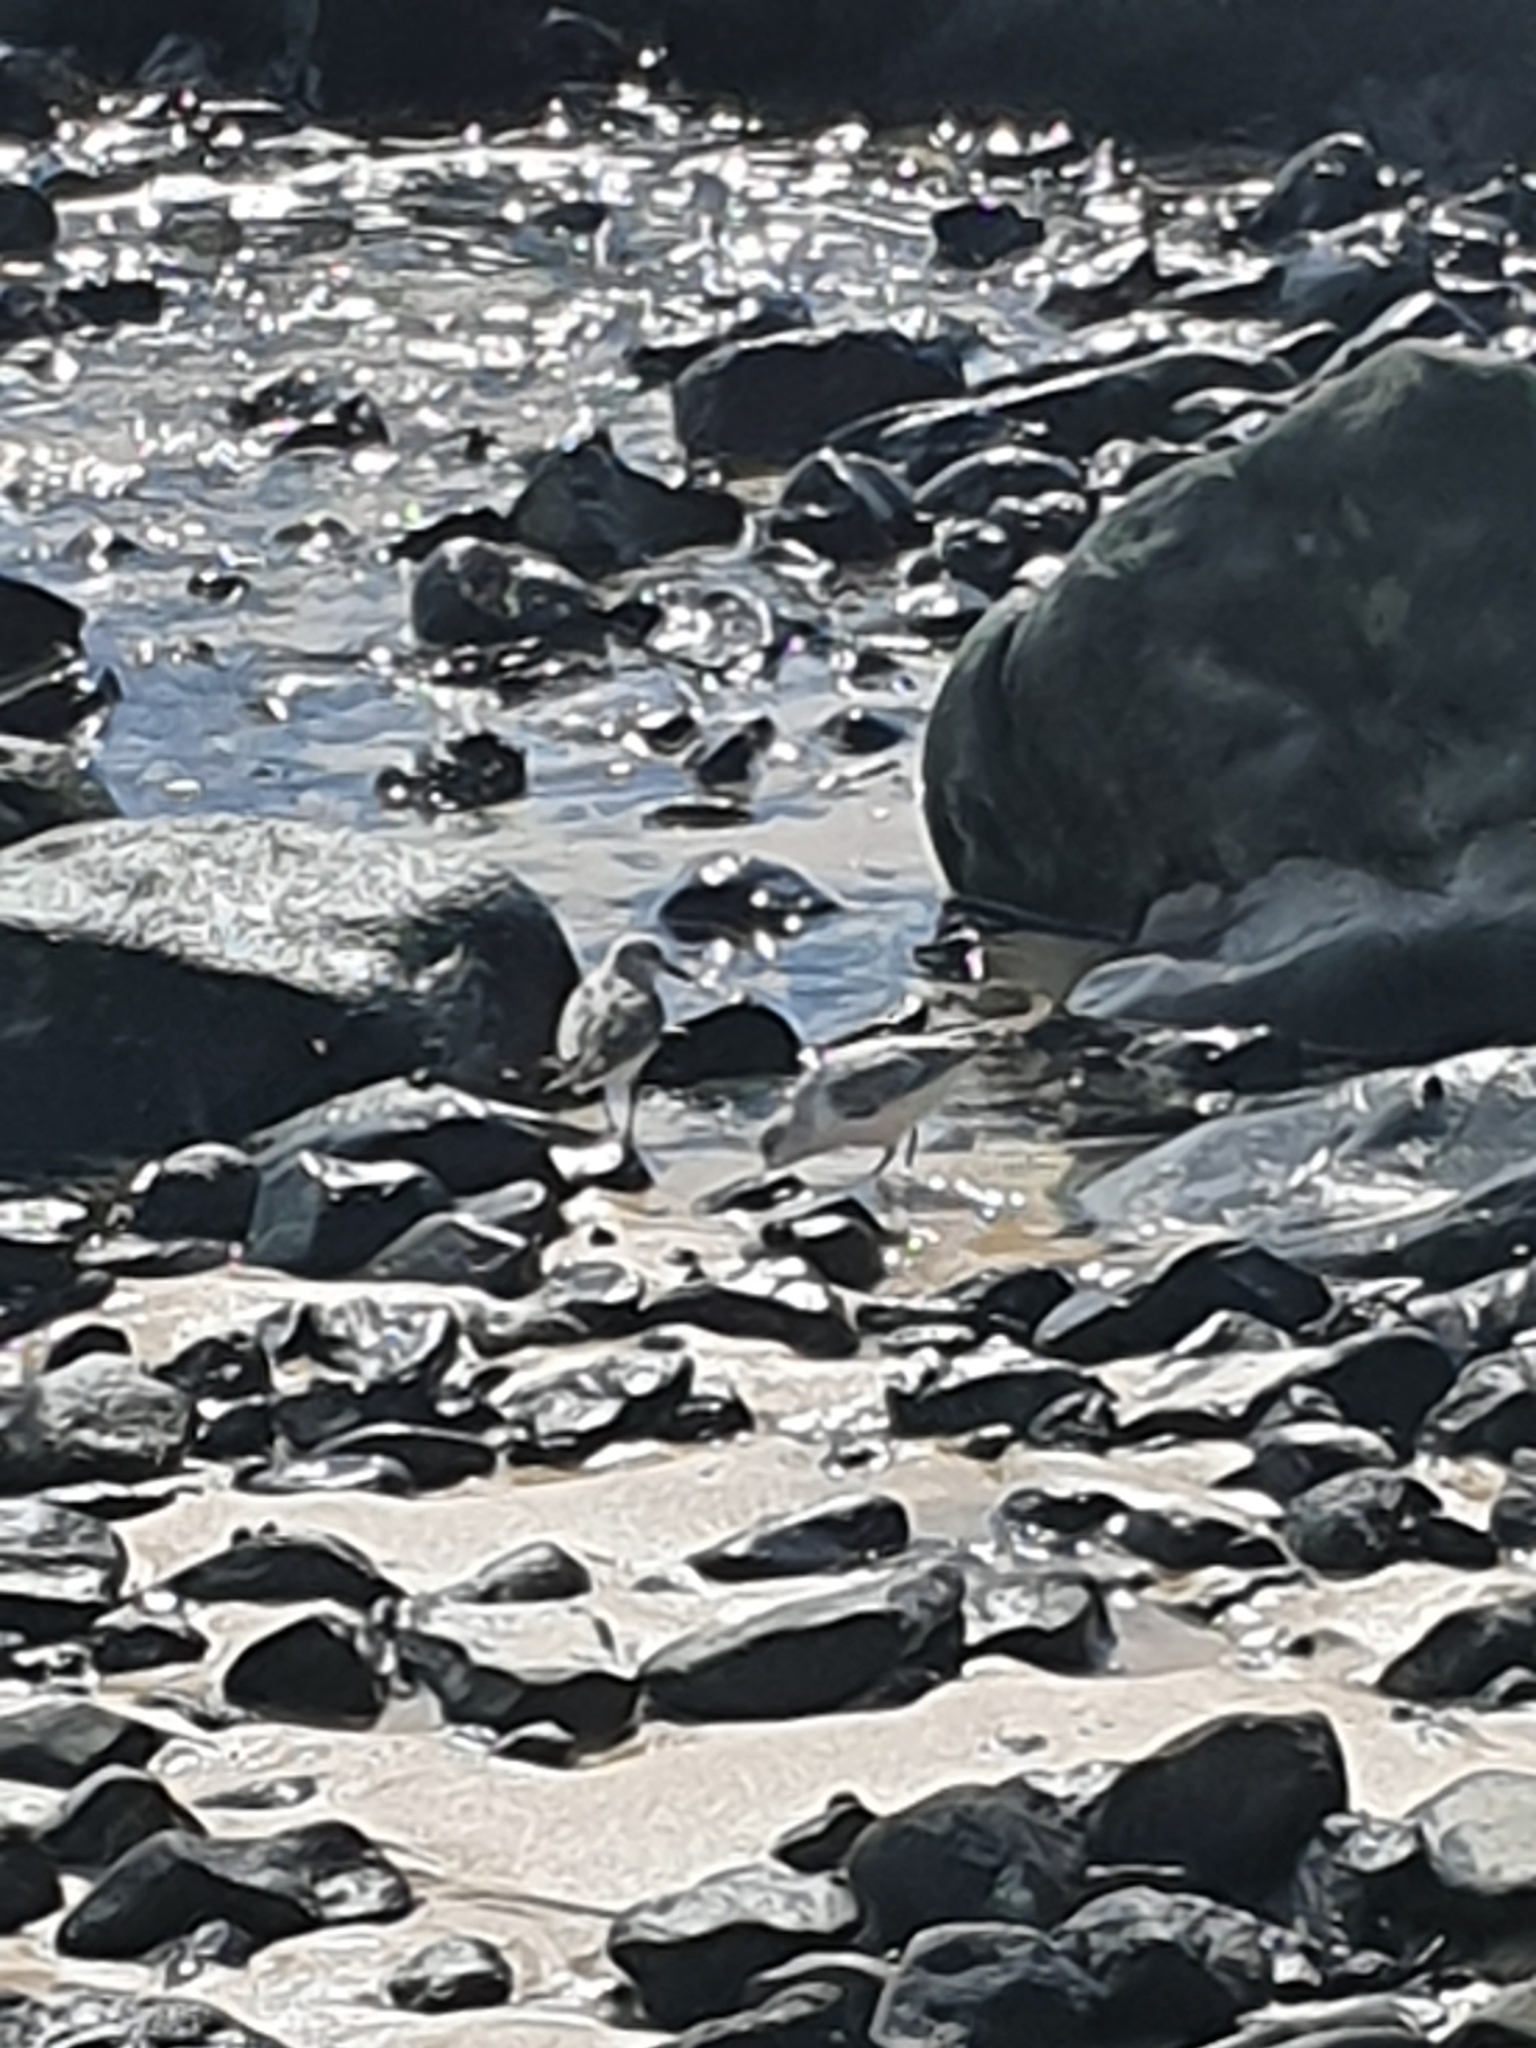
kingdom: Animalia
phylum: Chordata
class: Aves
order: Charadriiformes
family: Scolopacidae
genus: Calidris
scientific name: Calidris alba
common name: Sanderling
